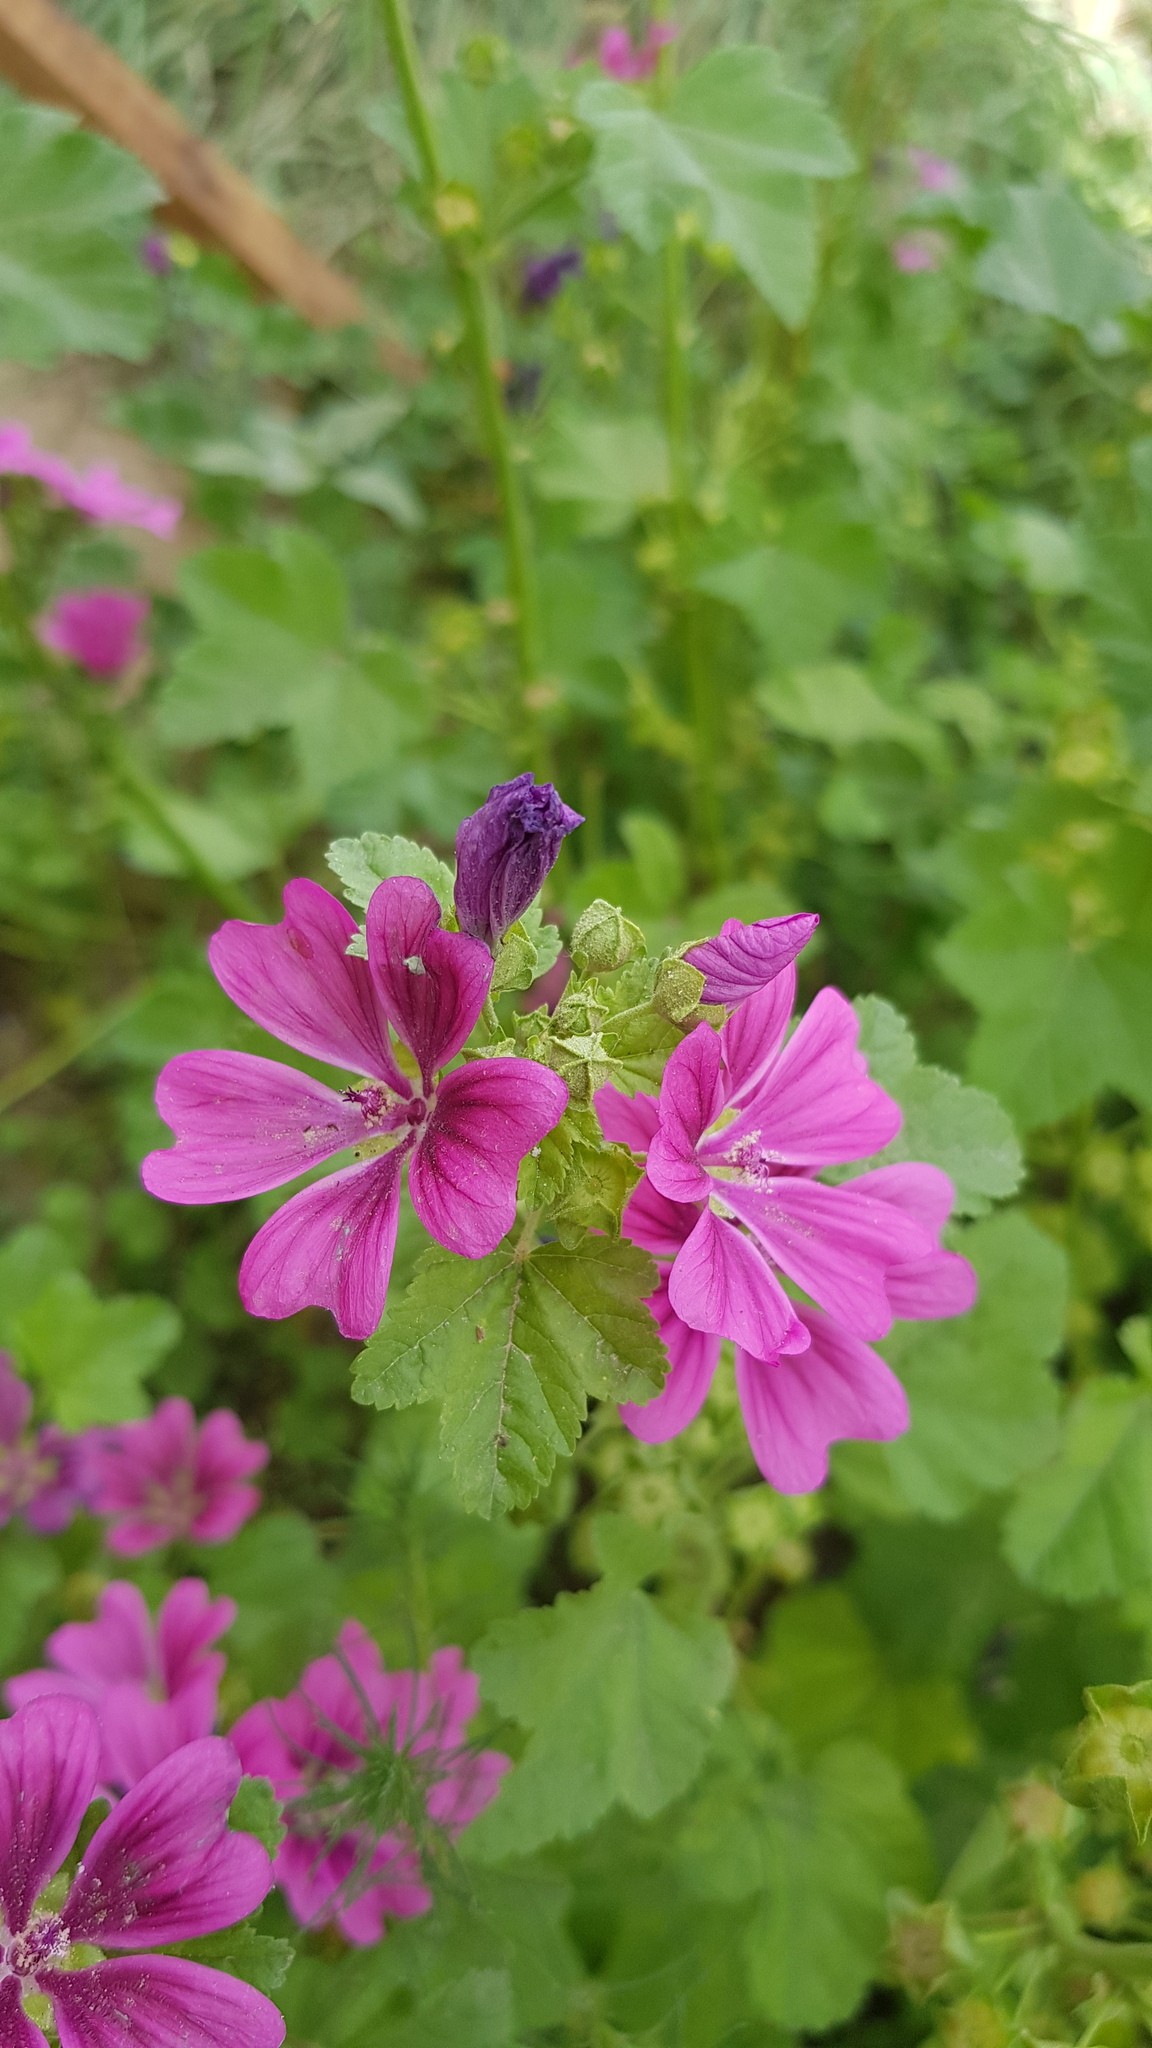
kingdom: Plantae
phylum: Tracheophyta
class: Magnoliopsida
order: Malvales
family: Malvaceae
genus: Malva
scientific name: Malva sylvestris
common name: Common mallow
